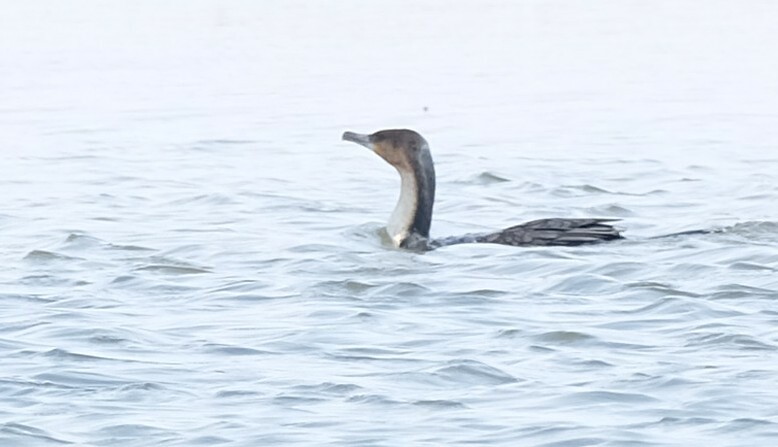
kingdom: Animalia
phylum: Chordata
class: Aves
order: Suliformes
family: Phalacrocoracidae
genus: Phalacrocorax
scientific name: Phalacrocorax carbo
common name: Great cormorant
